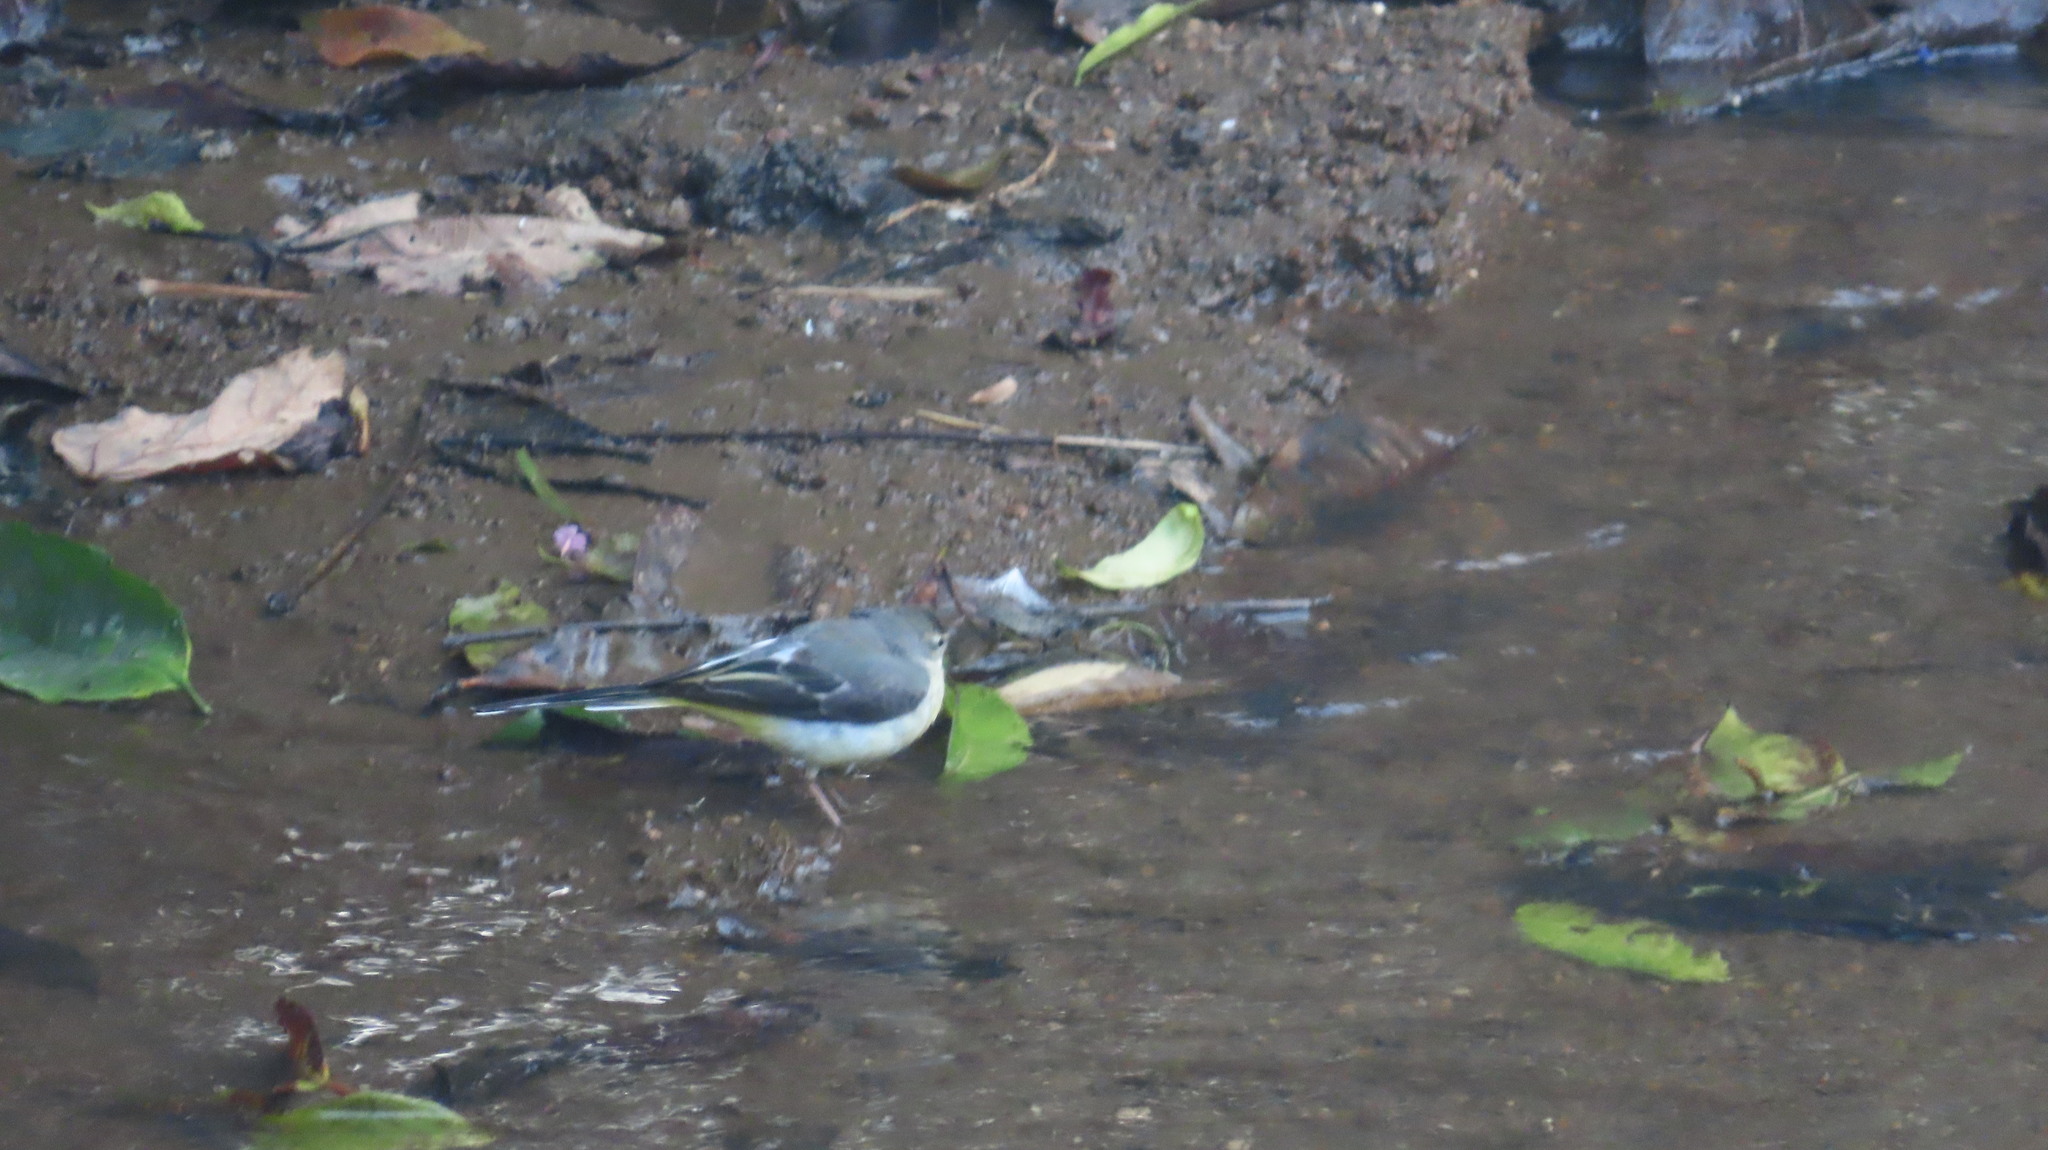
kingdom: Animalia
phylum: Chordata
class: Aves
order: Passeriformes
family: Motacillidae
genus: Motacilla
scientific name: Motacilla cinerea
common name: Grey wagtail
